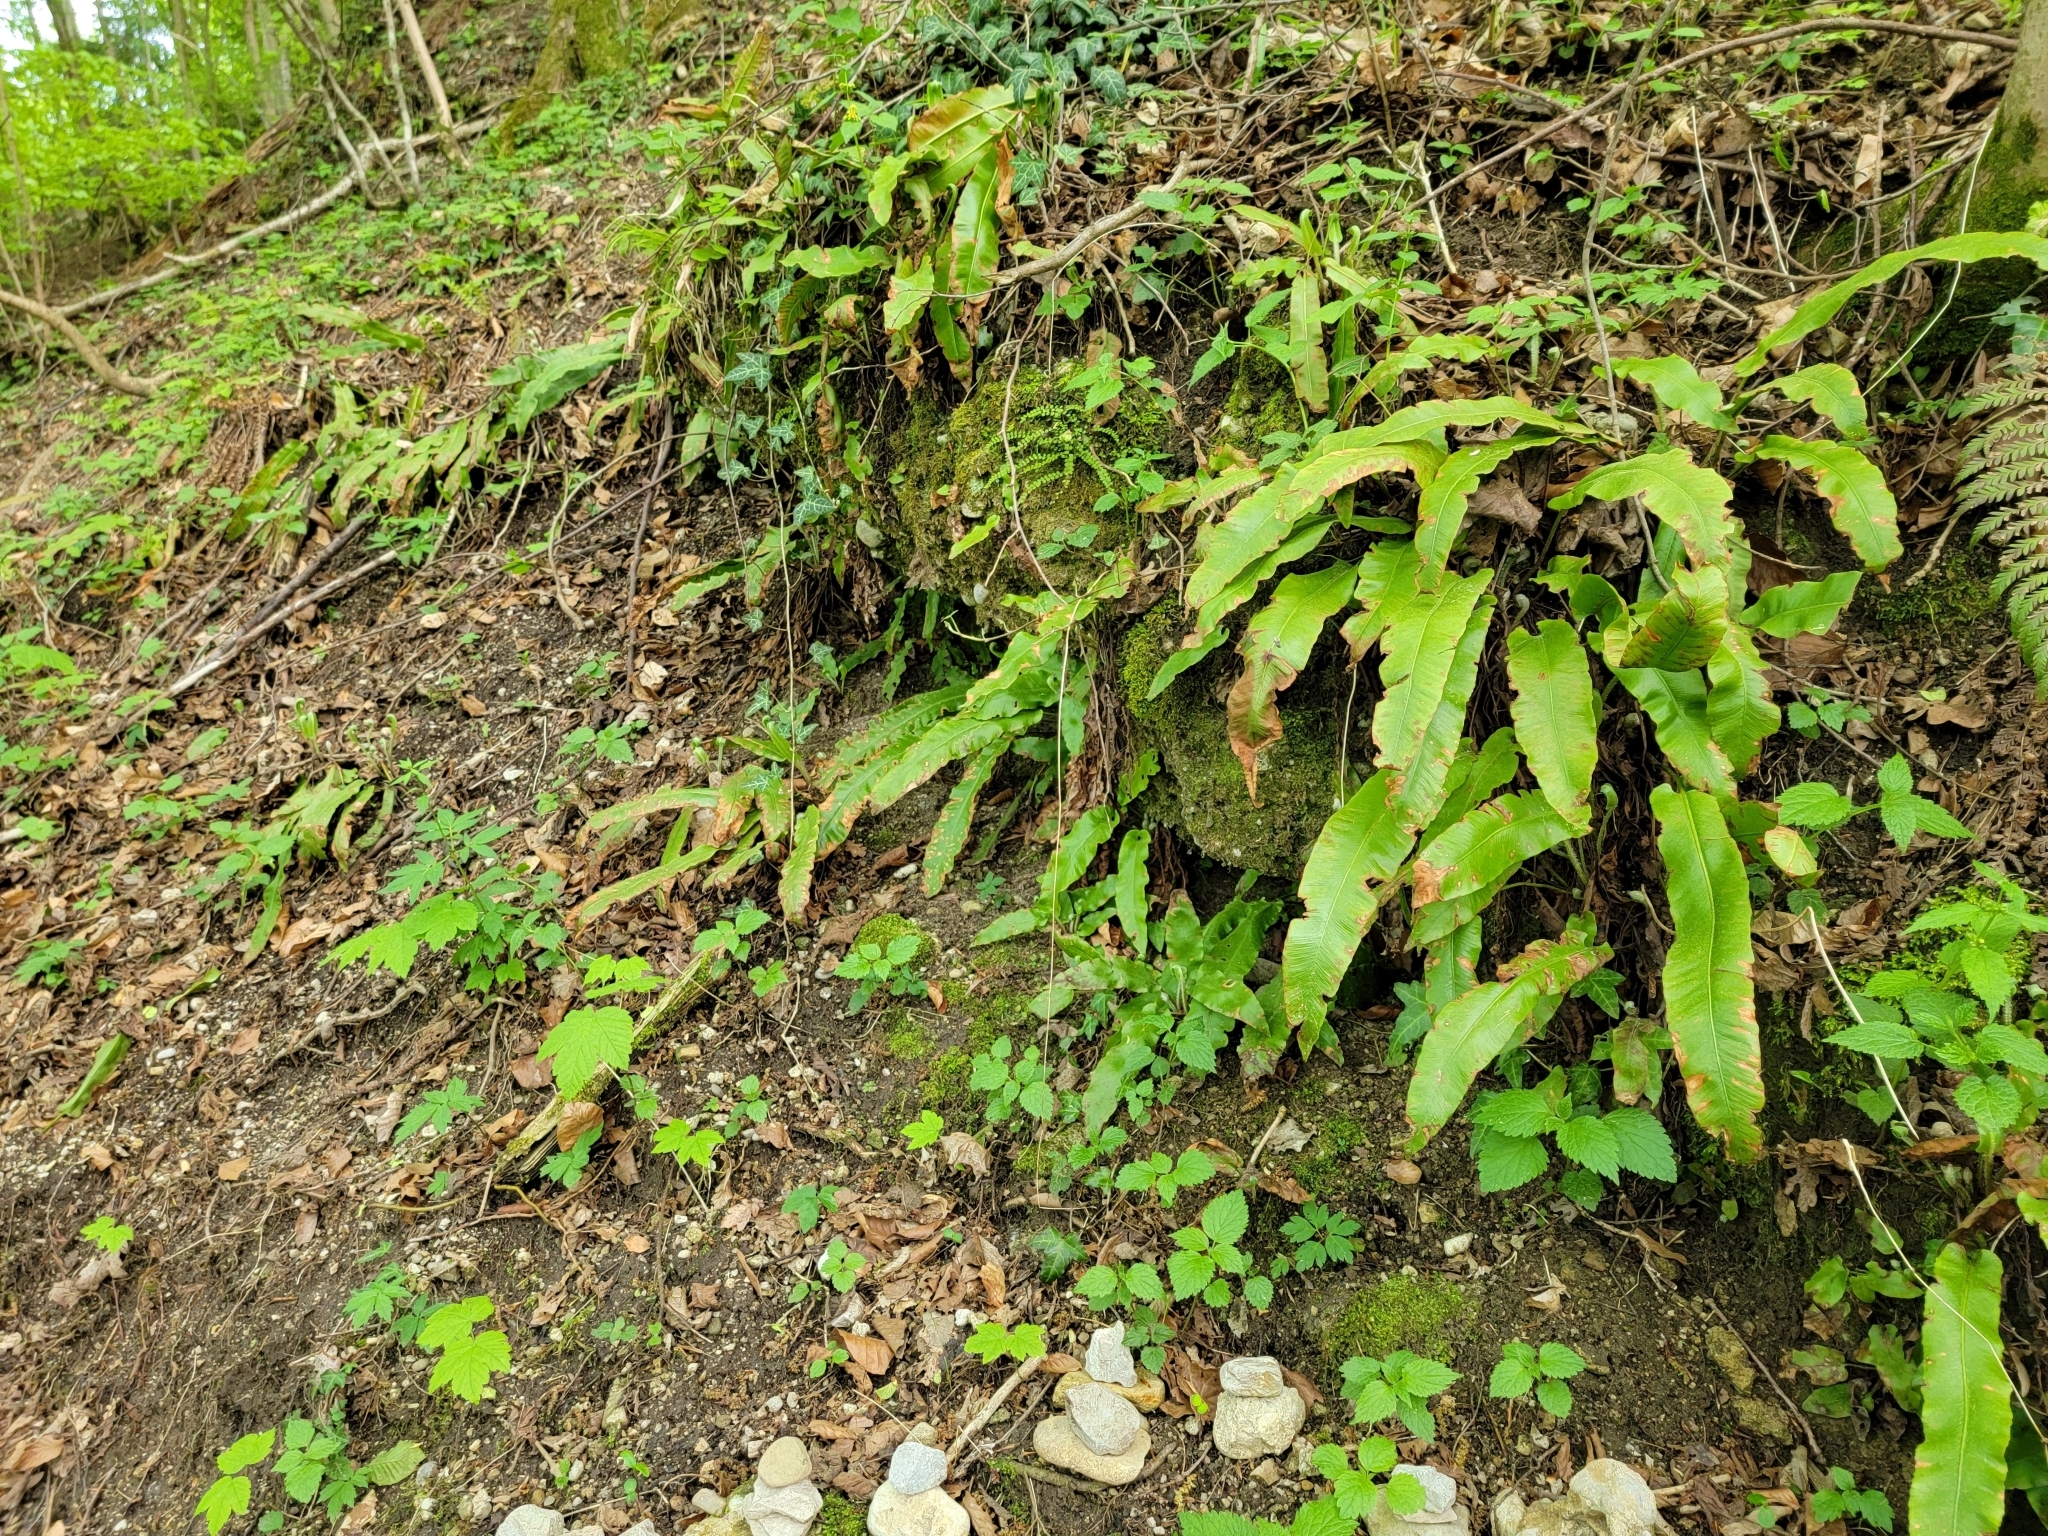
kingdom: Plantae
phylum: Tracheophyta
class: Polypodiopsida
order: Polypodiales
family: Aspleniaceae
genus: Asplenium
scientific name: Asplenium scolopendrium
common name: Hart's-tongue fern
